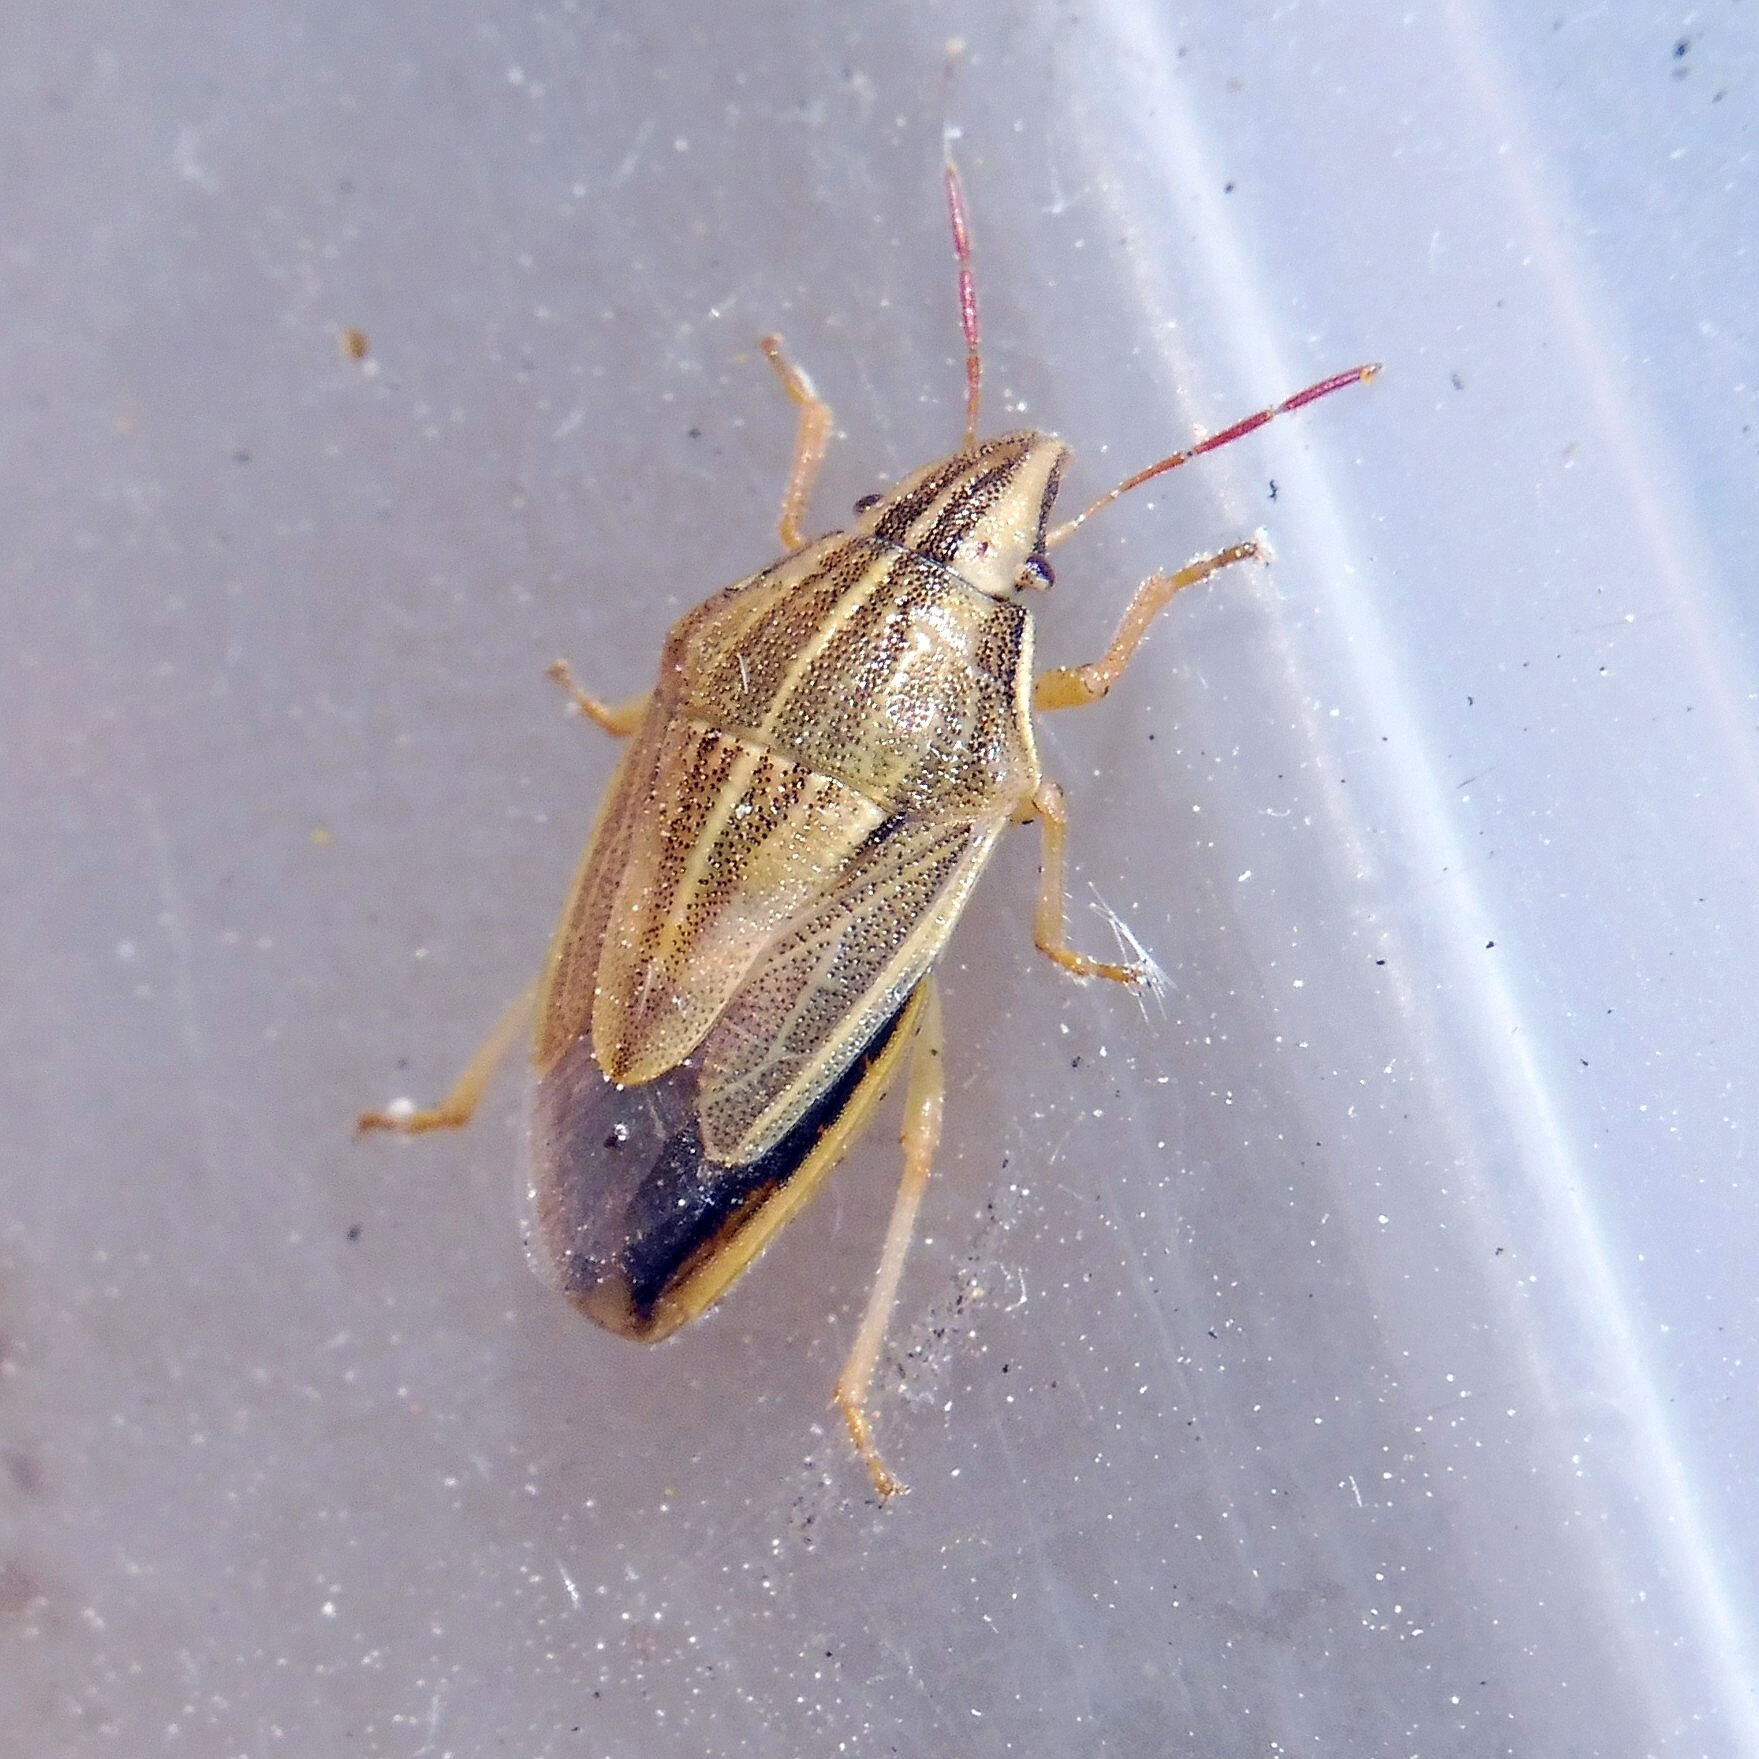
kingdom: Animalia
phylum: Arthropoda
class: Insecta
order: Hemiptera
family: Pentatomidae
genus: Aelia
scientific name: Aelia acuminata
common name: Bishop's mitre
